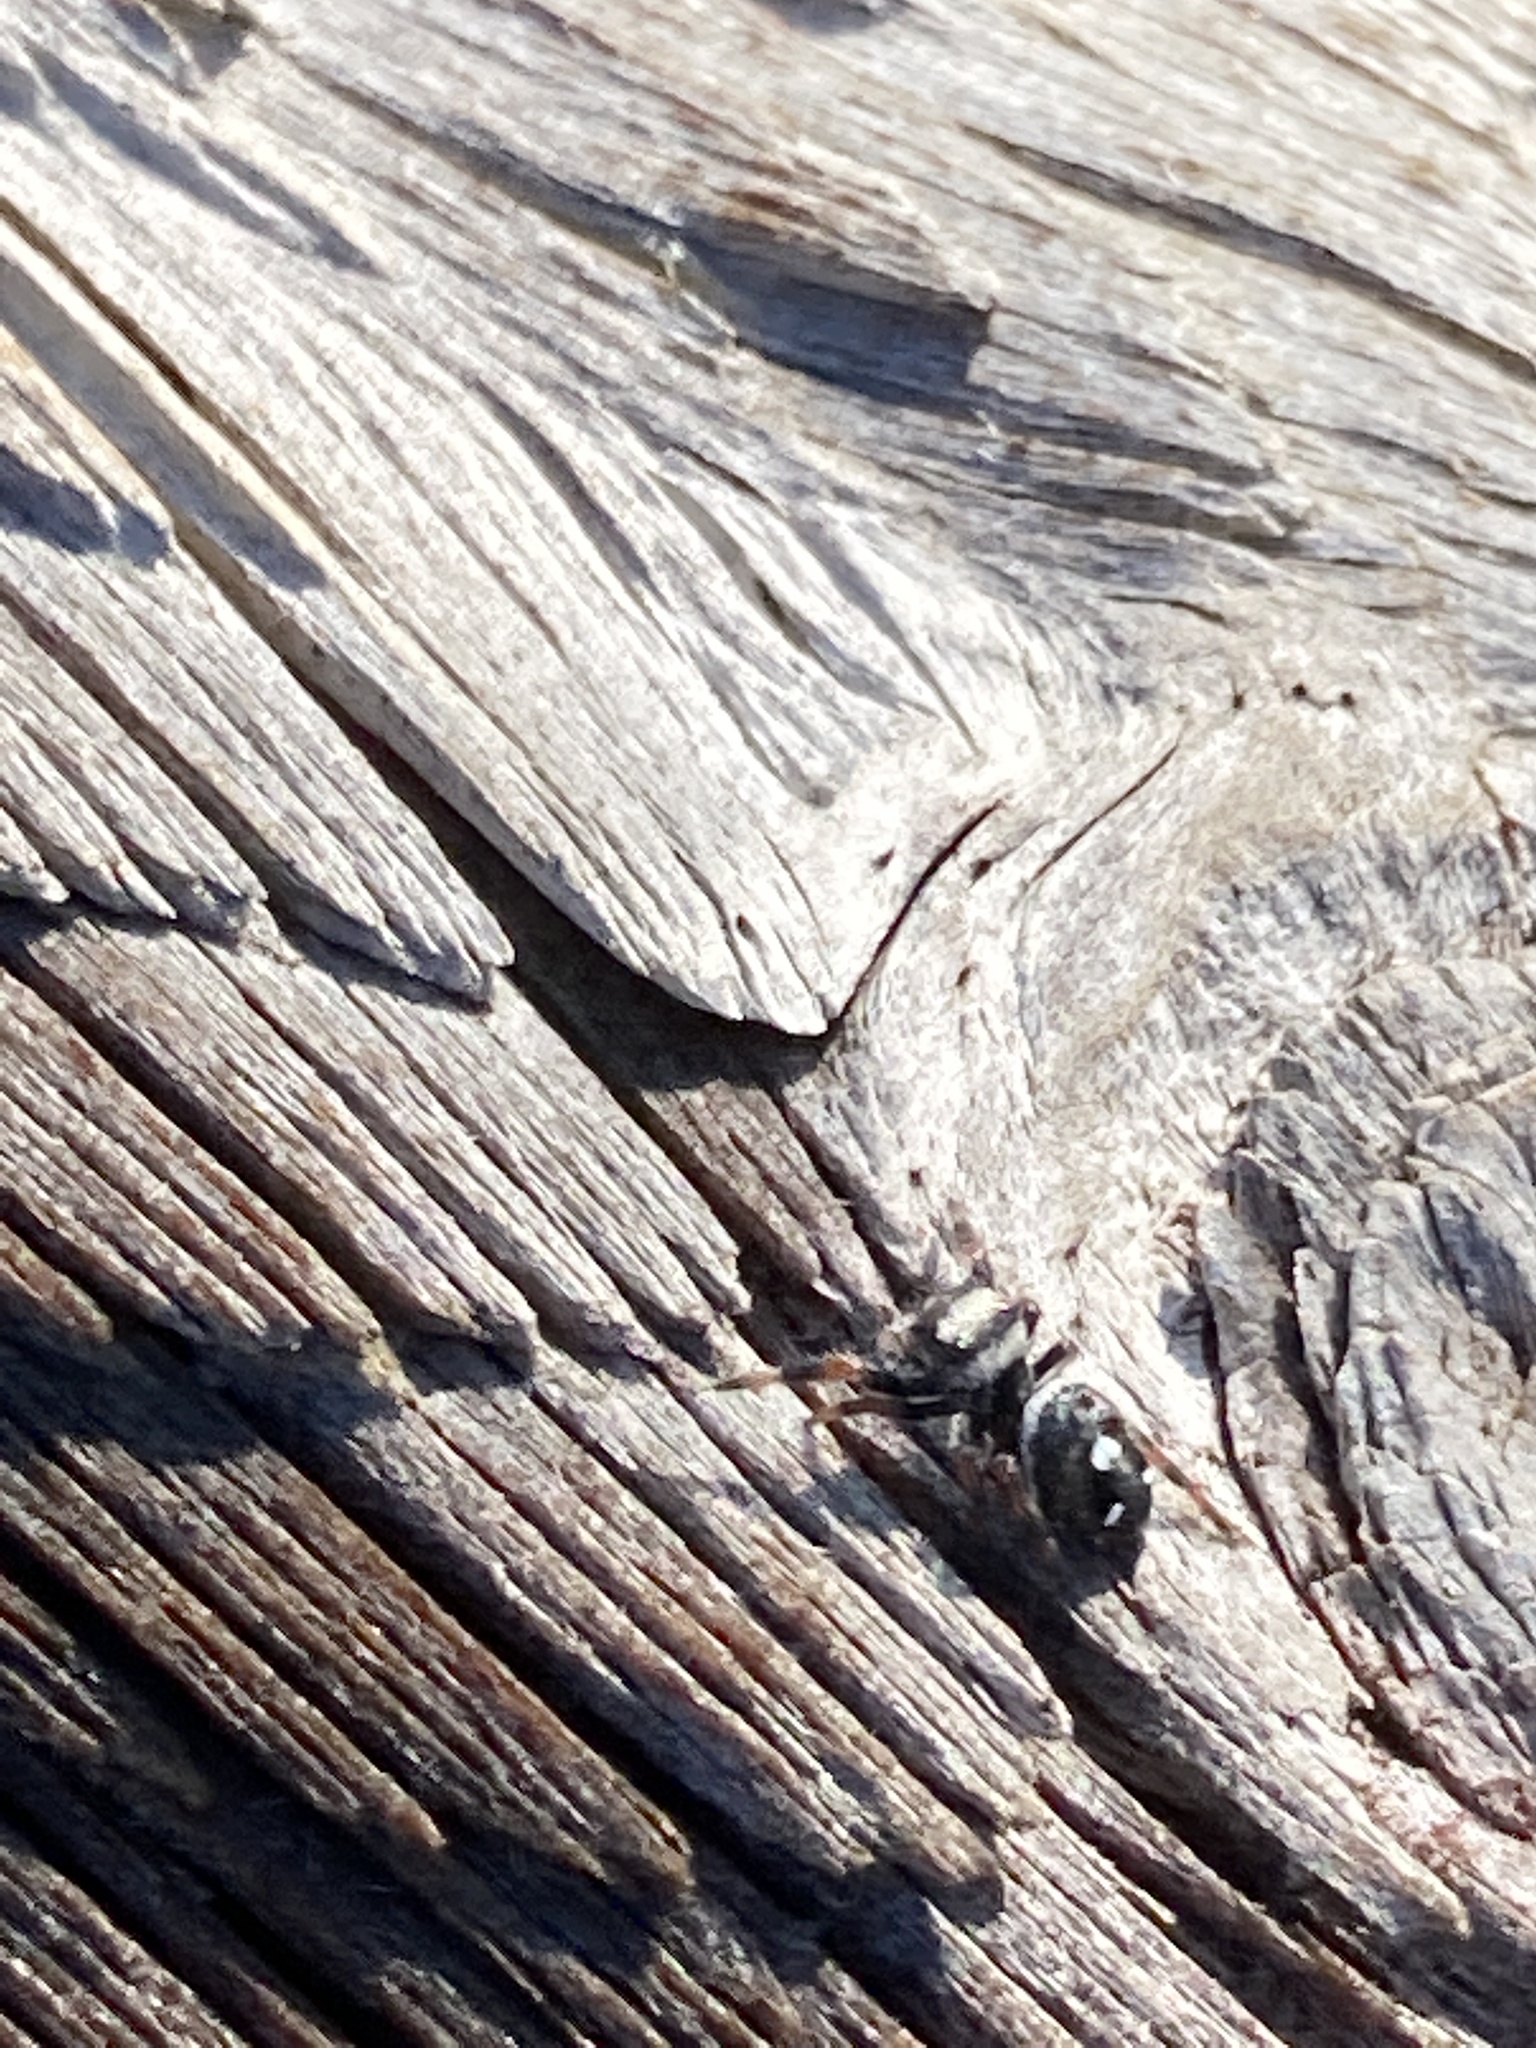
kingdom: Animalia
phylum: Arthropoda
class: Arachnida
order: Araneae
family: Salticidae
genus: Phidippus
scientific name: Phidippus regius
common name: Regal jumper
